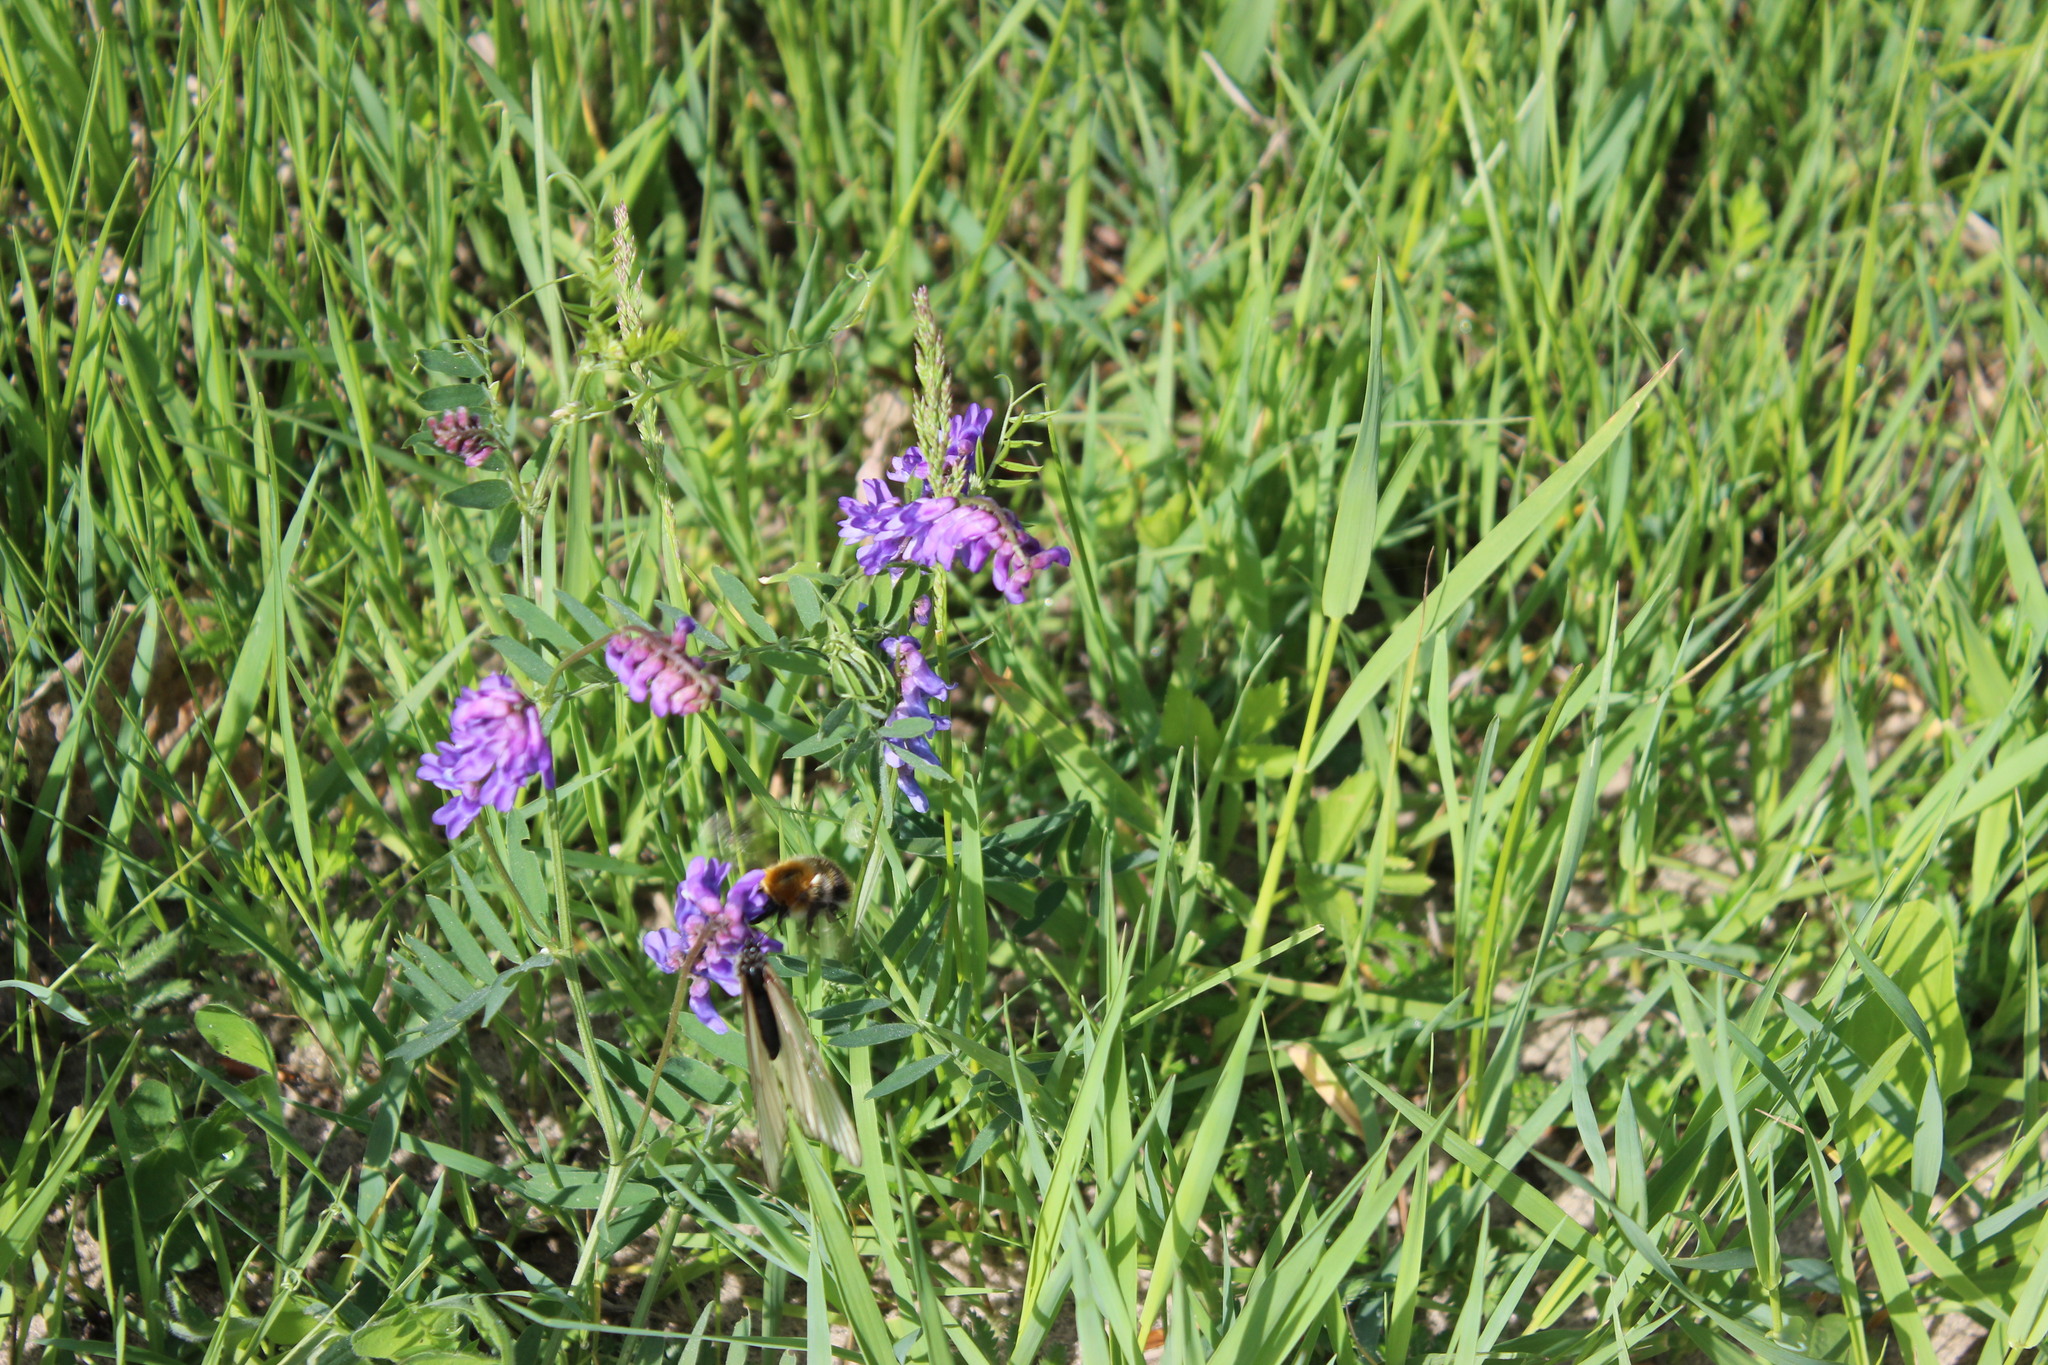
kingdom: Plantae
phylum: Tracheophyta
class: Magnoliopsida
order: Fabales
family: Fabaceae
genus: Vicia
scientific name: Vicia cracca
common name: Bird vetch
